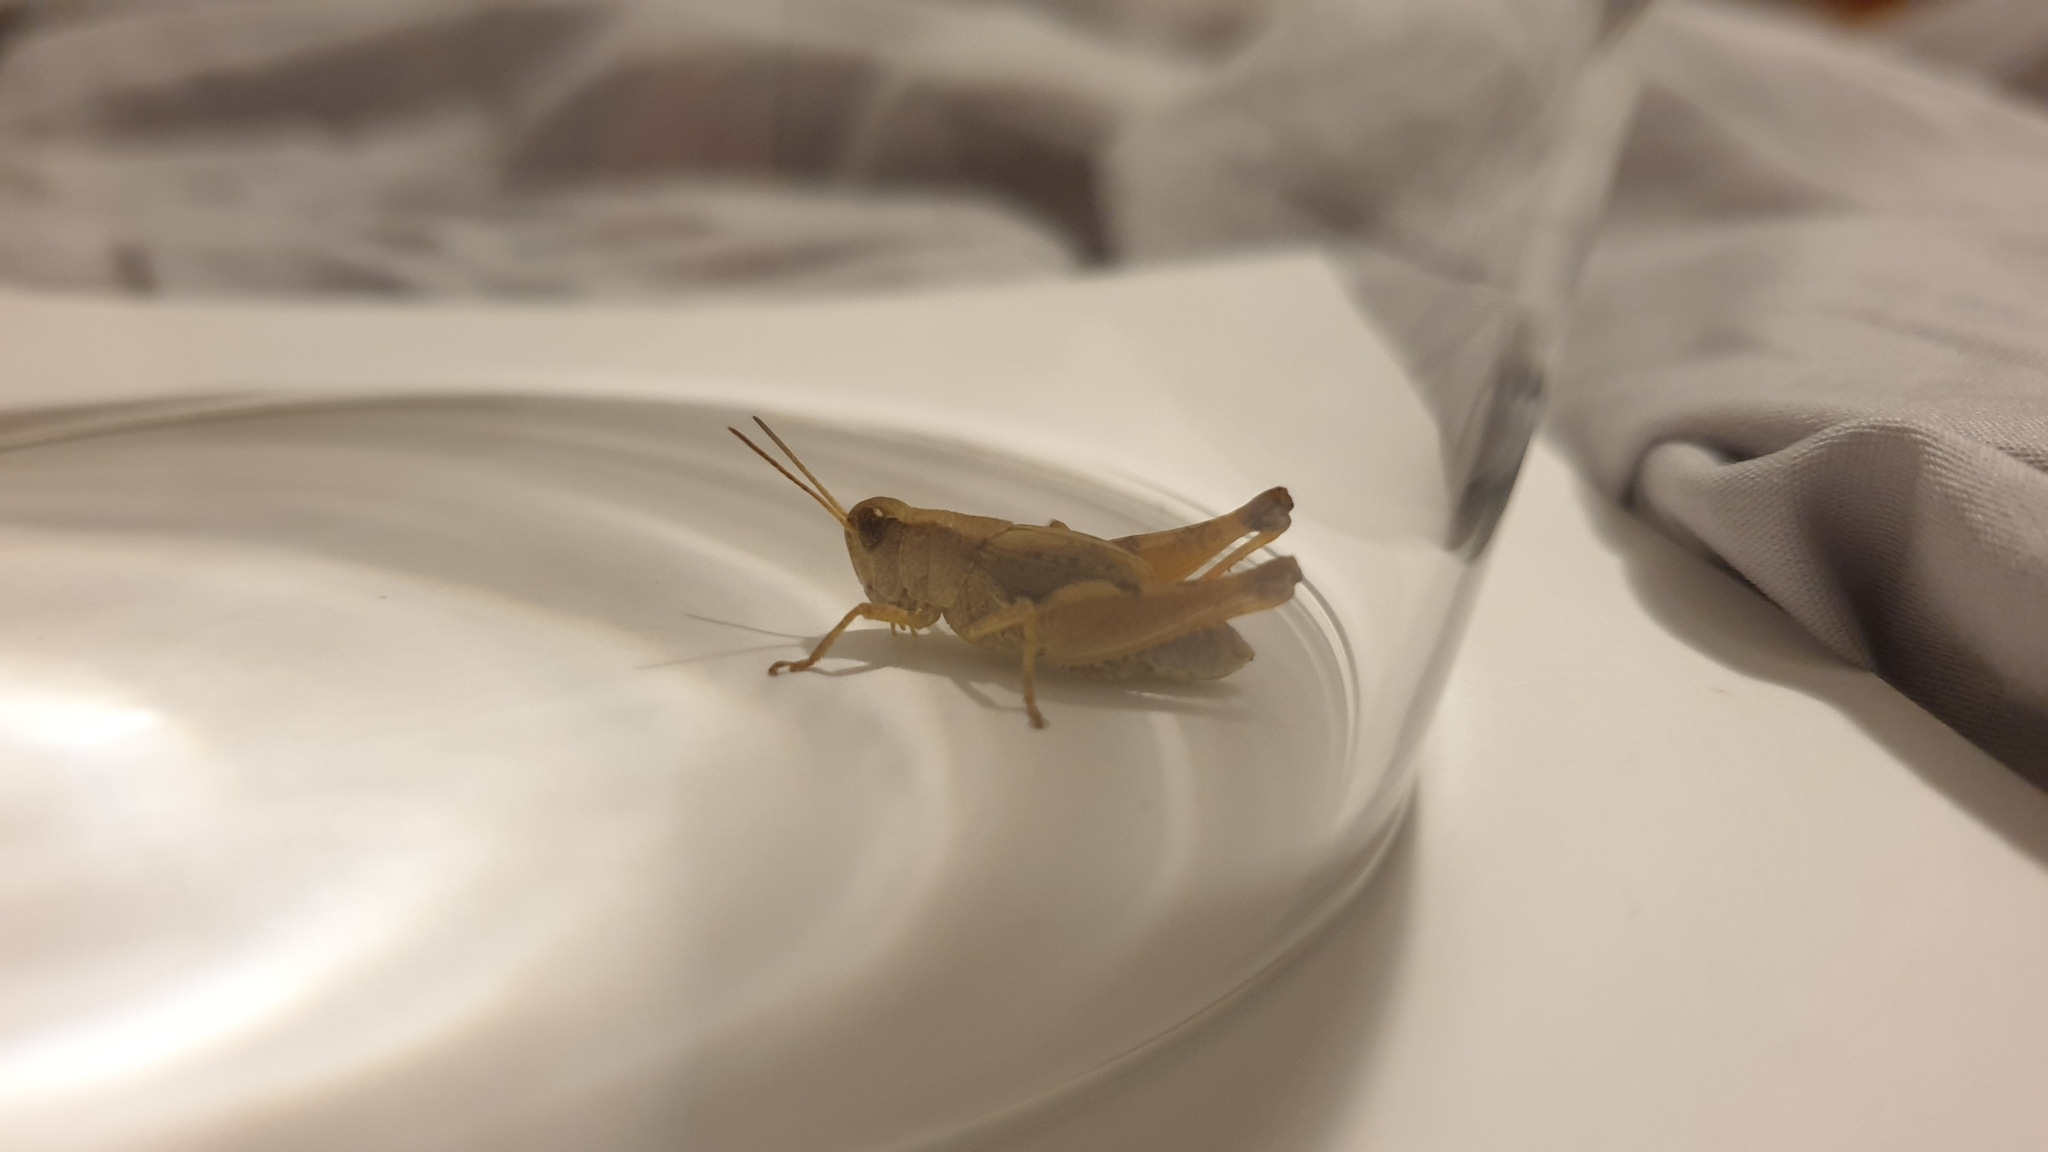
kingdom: Animalia
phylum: Arthropoda
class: Insecta
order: Orthoptera
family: Acrididae
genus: Phaulacridium
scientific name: Phaulacridium vittatum
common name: Wingless grasshopper
